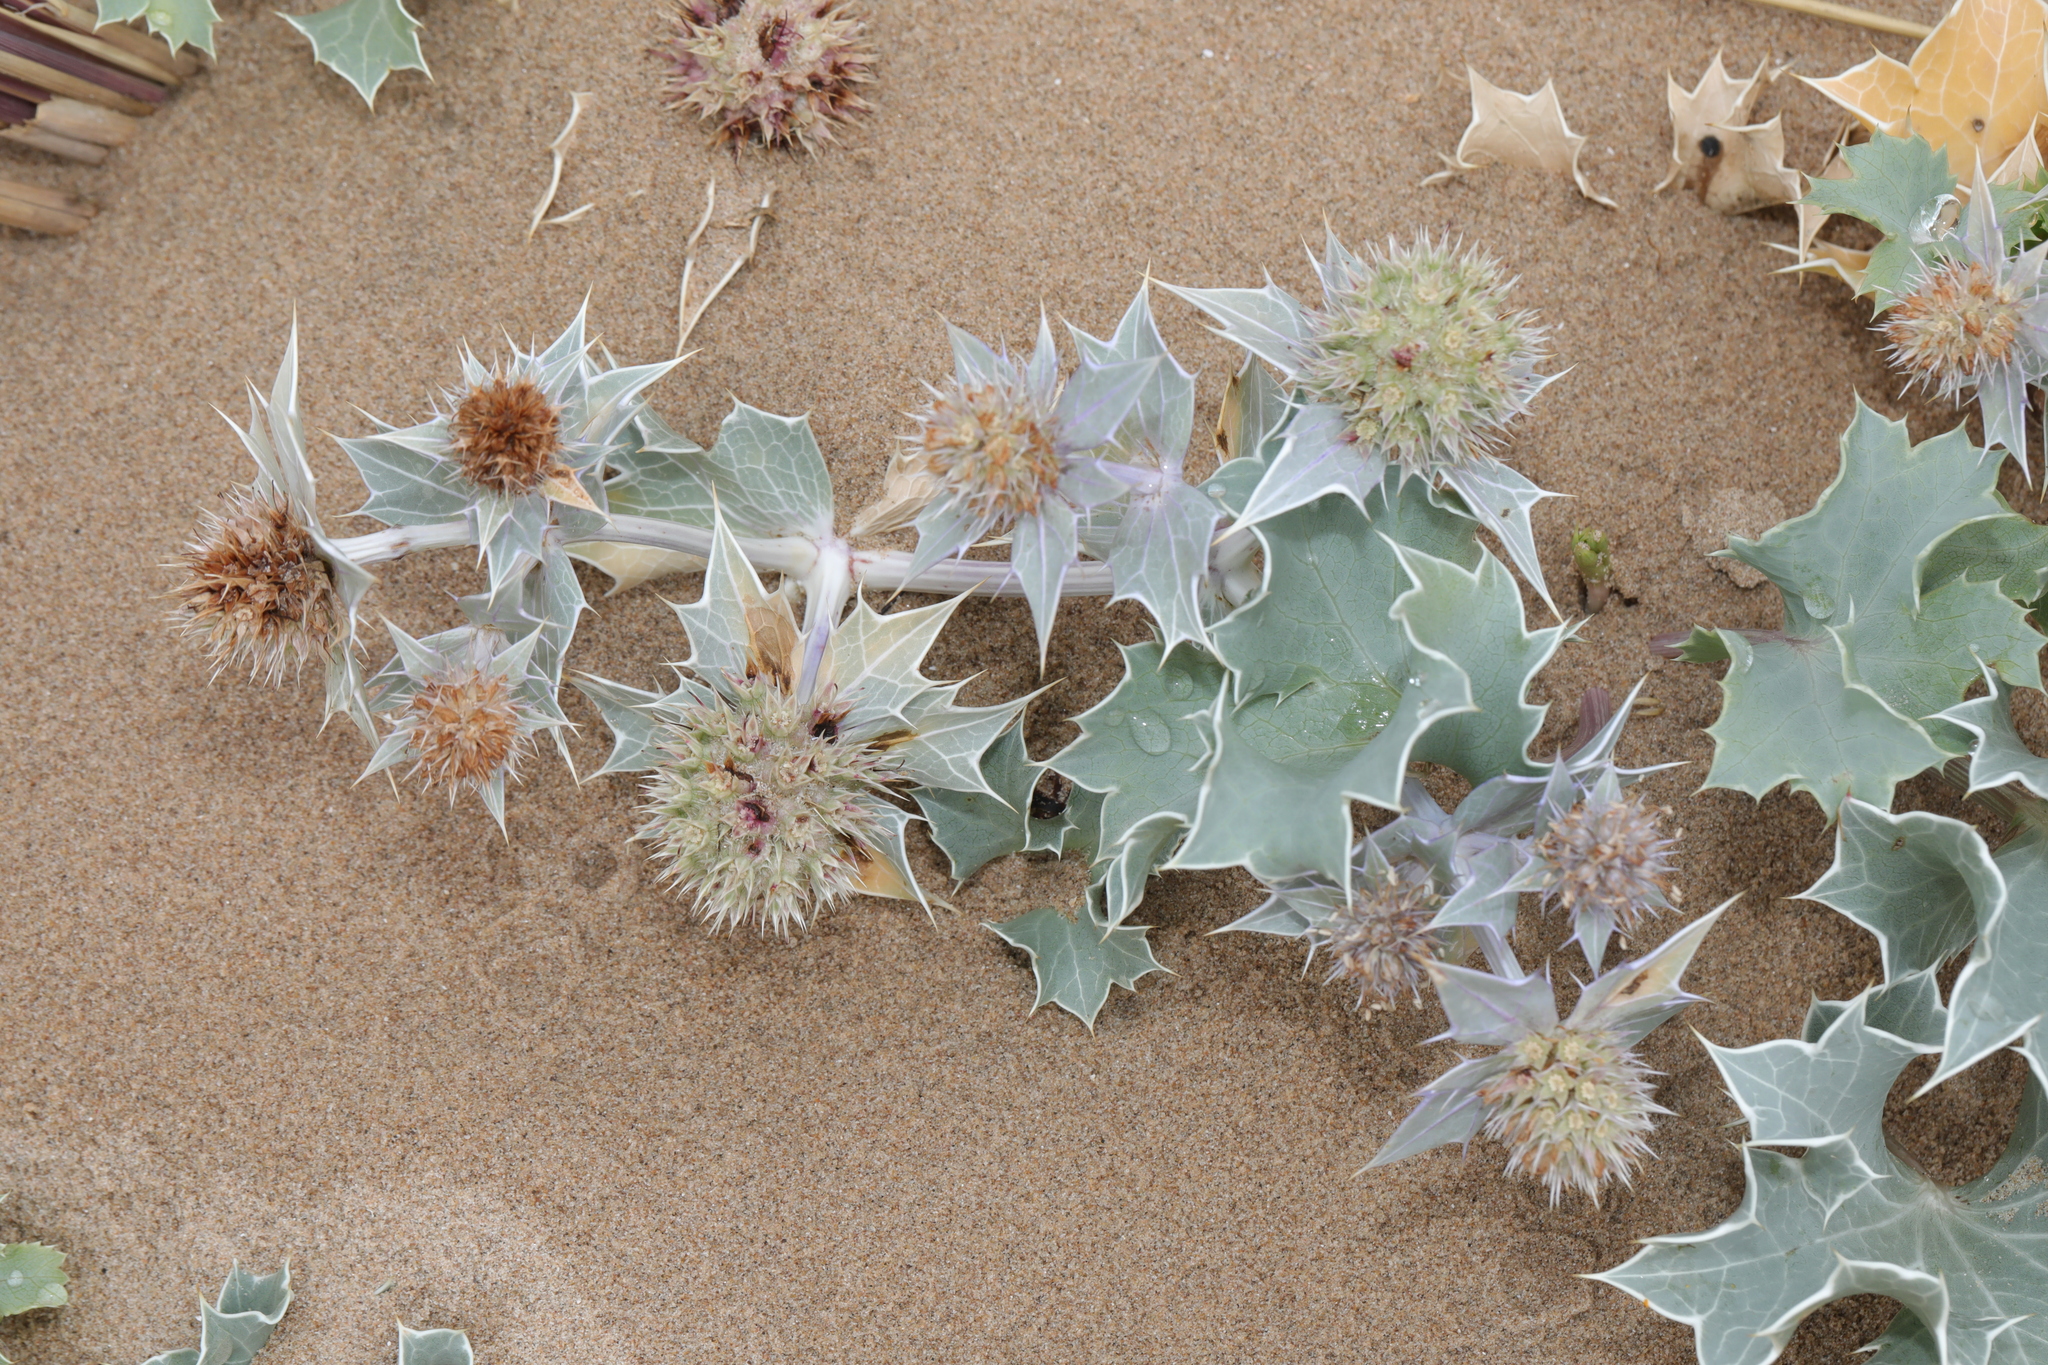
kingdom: Plantae
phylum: Tracheophyta
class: Magnoliopsida
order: Apiales
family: Apiaceae
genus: Eryngium
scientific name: Eryngium maritimum
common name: Sea-holly
